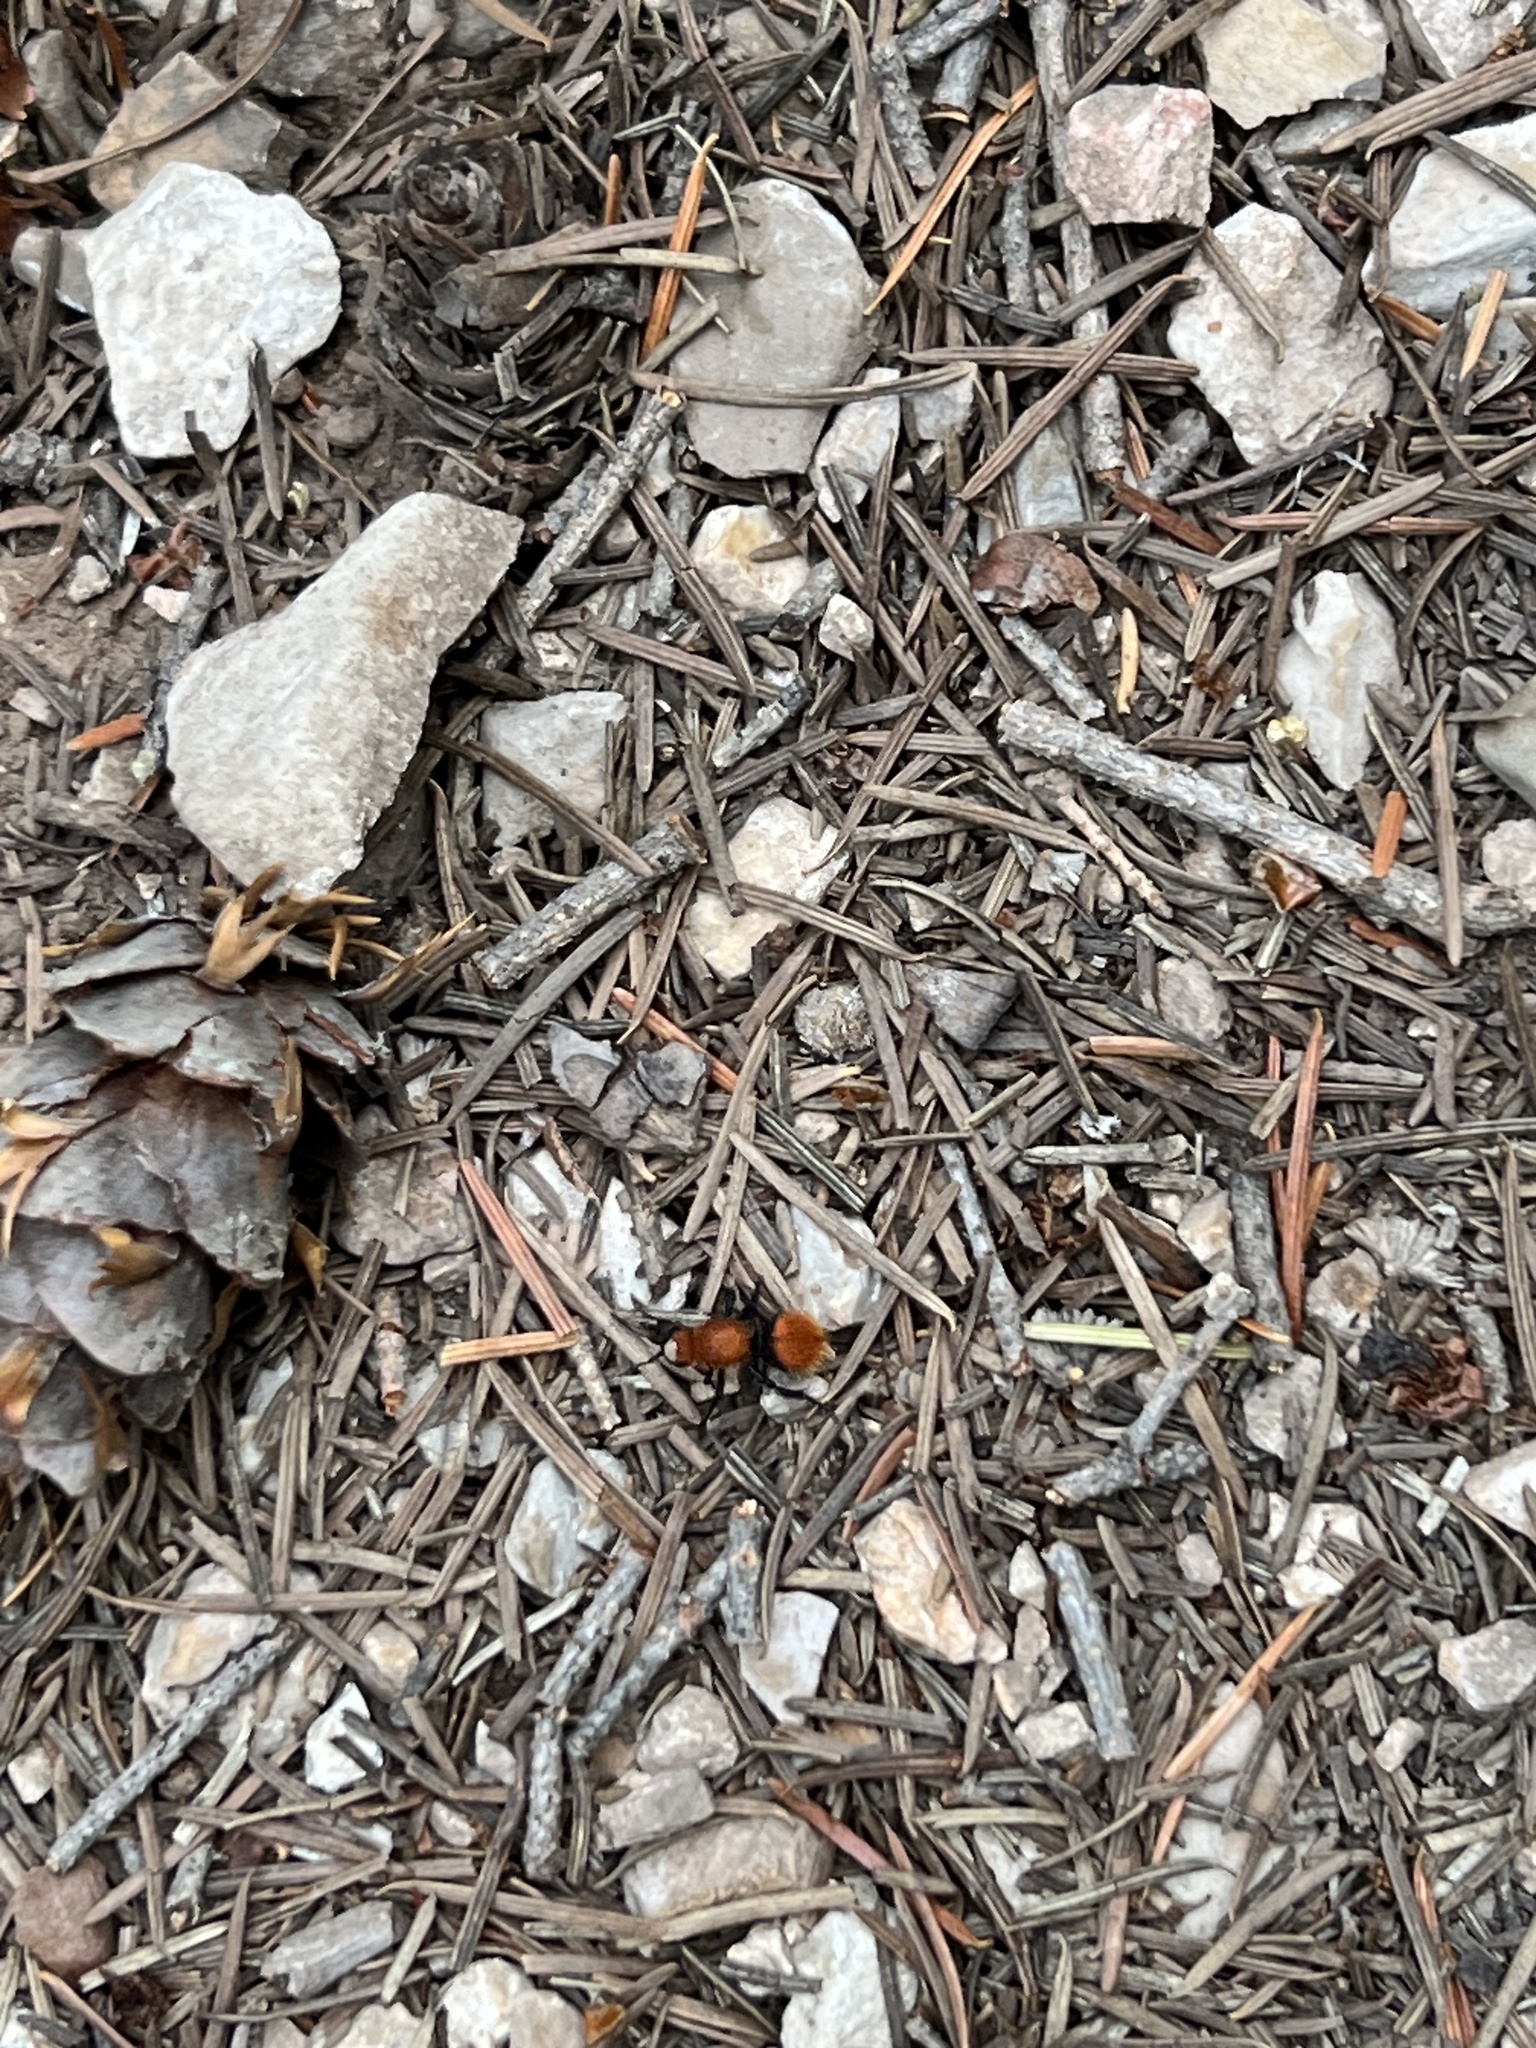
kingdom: Animalia
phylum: Arthropoda
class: Insecta
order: Hymenoptera
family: Mutillidae
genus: Dasymutilla
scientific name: Dasymutilla vestita
